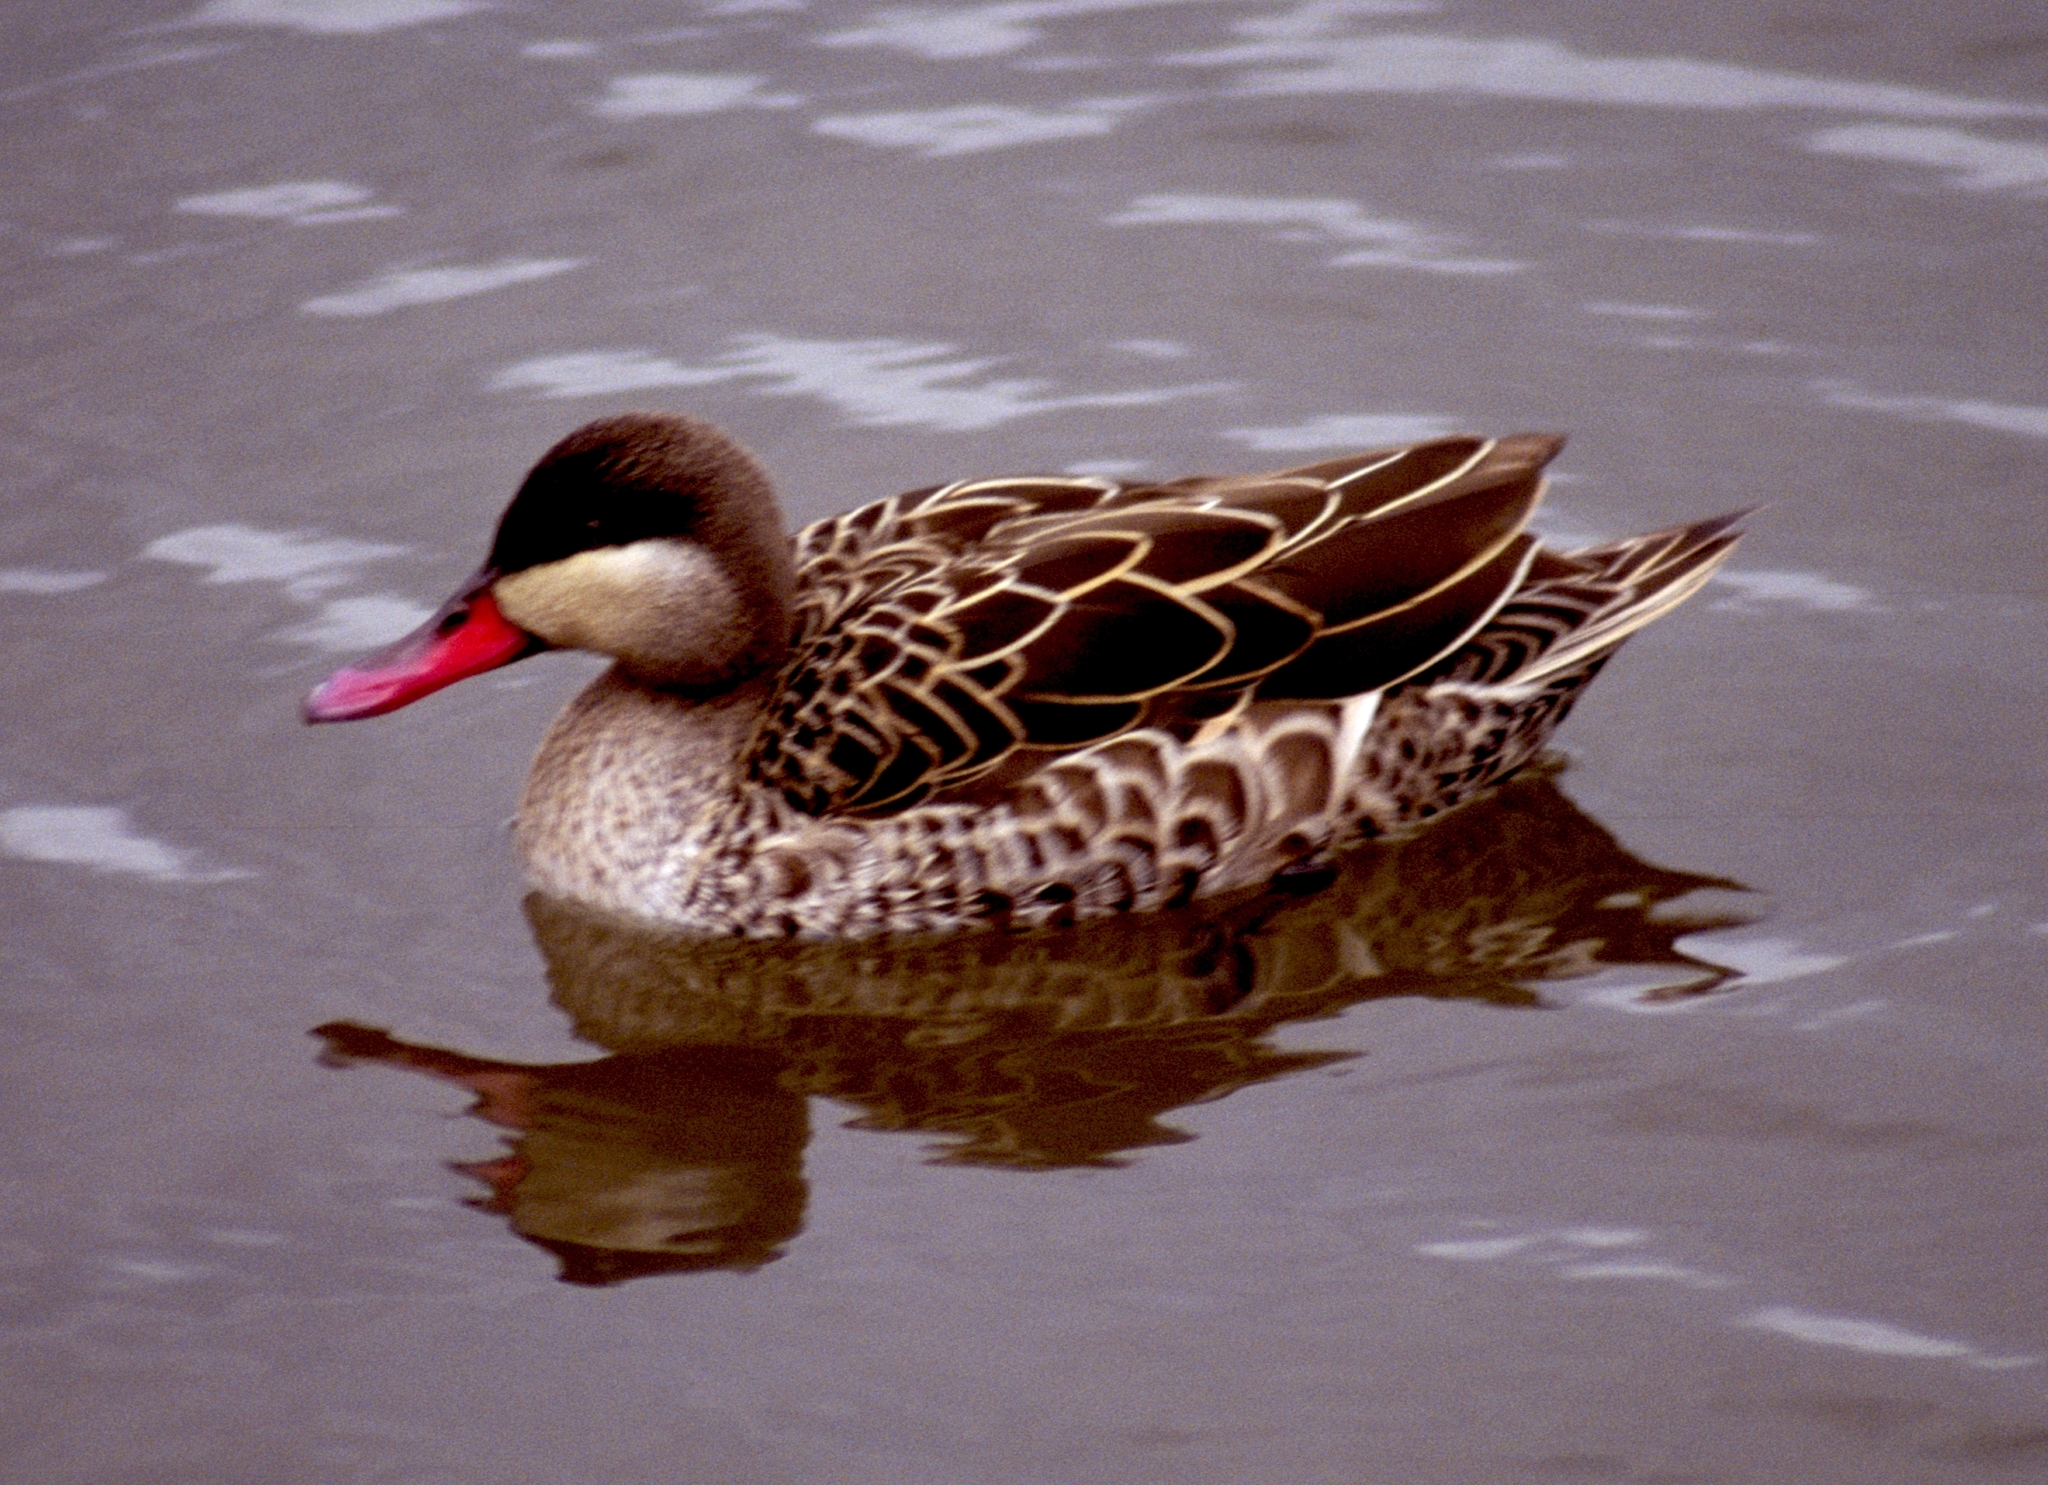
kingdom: Animalia
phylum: Chordata
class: Aves
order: Anseriformes
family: Anatidae
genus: Anas
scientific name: Anas erythrorhyncha
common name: Red-billed teal
